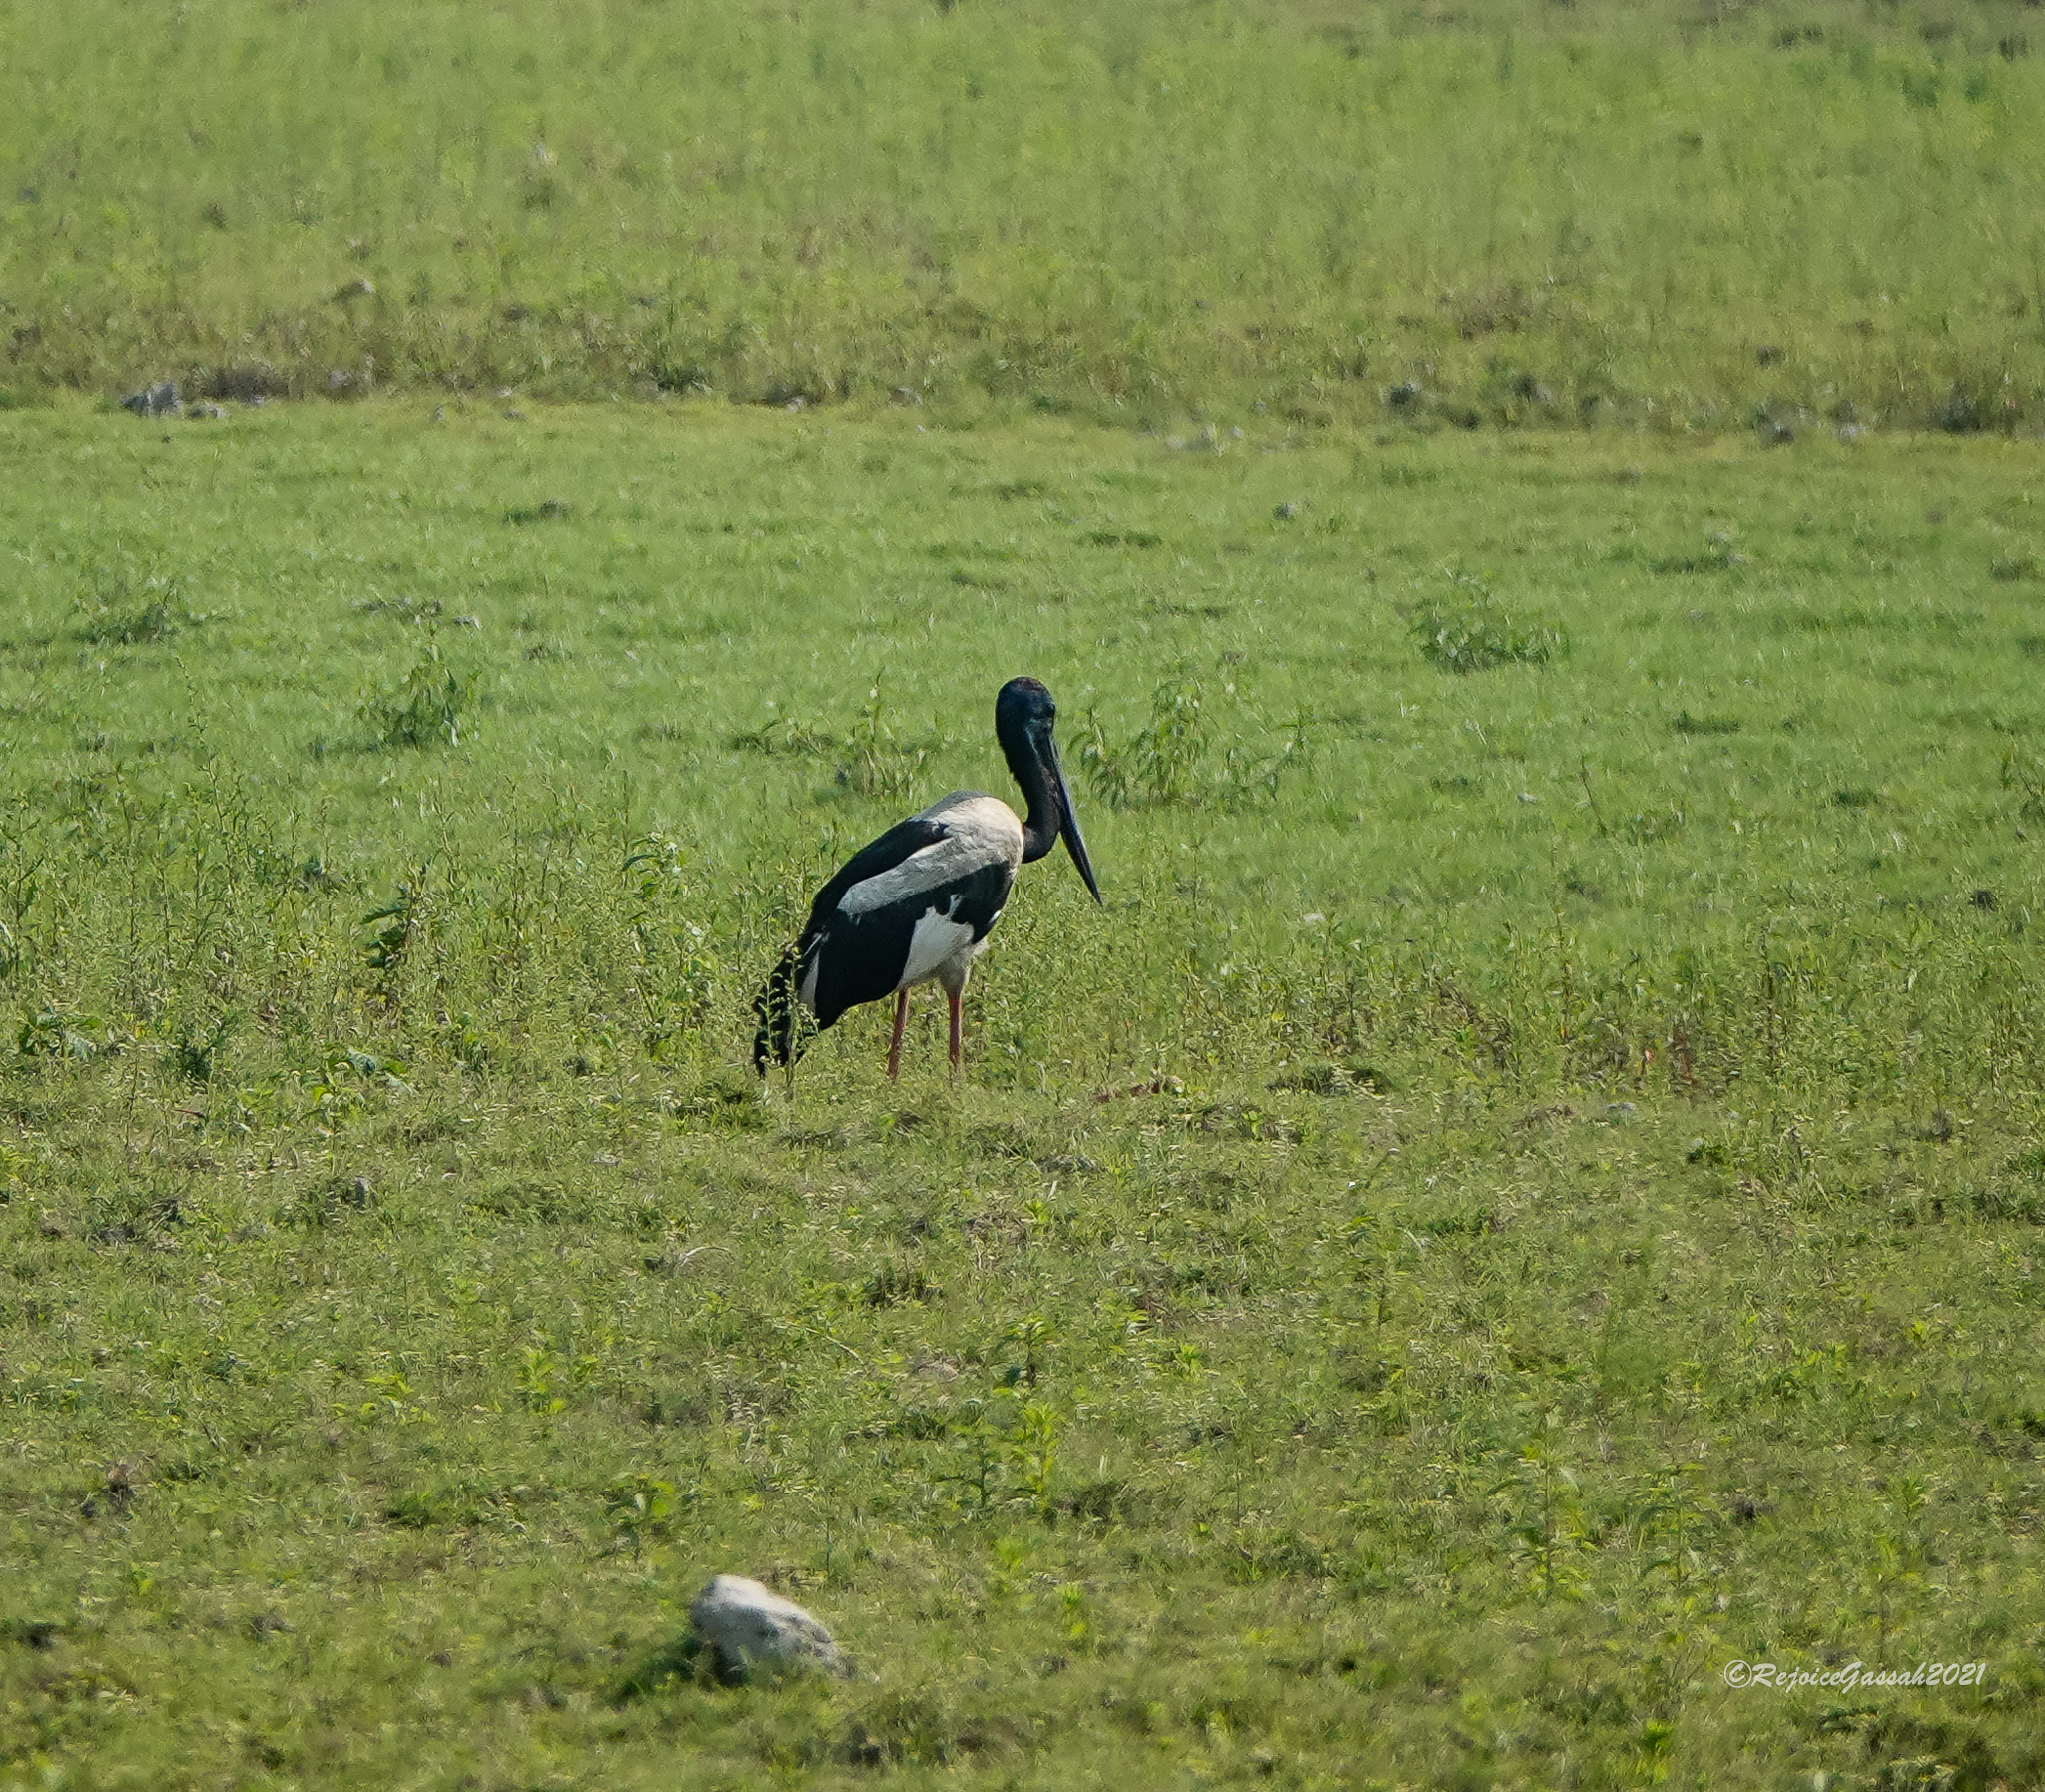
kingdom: Animalia
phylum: Chordata
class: Aves
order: Ciconiiformes
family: Ciconiidae
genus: Ephippiorhynchus
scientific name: Ephippiorhynchus asiaticus
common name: Black-necked stork
